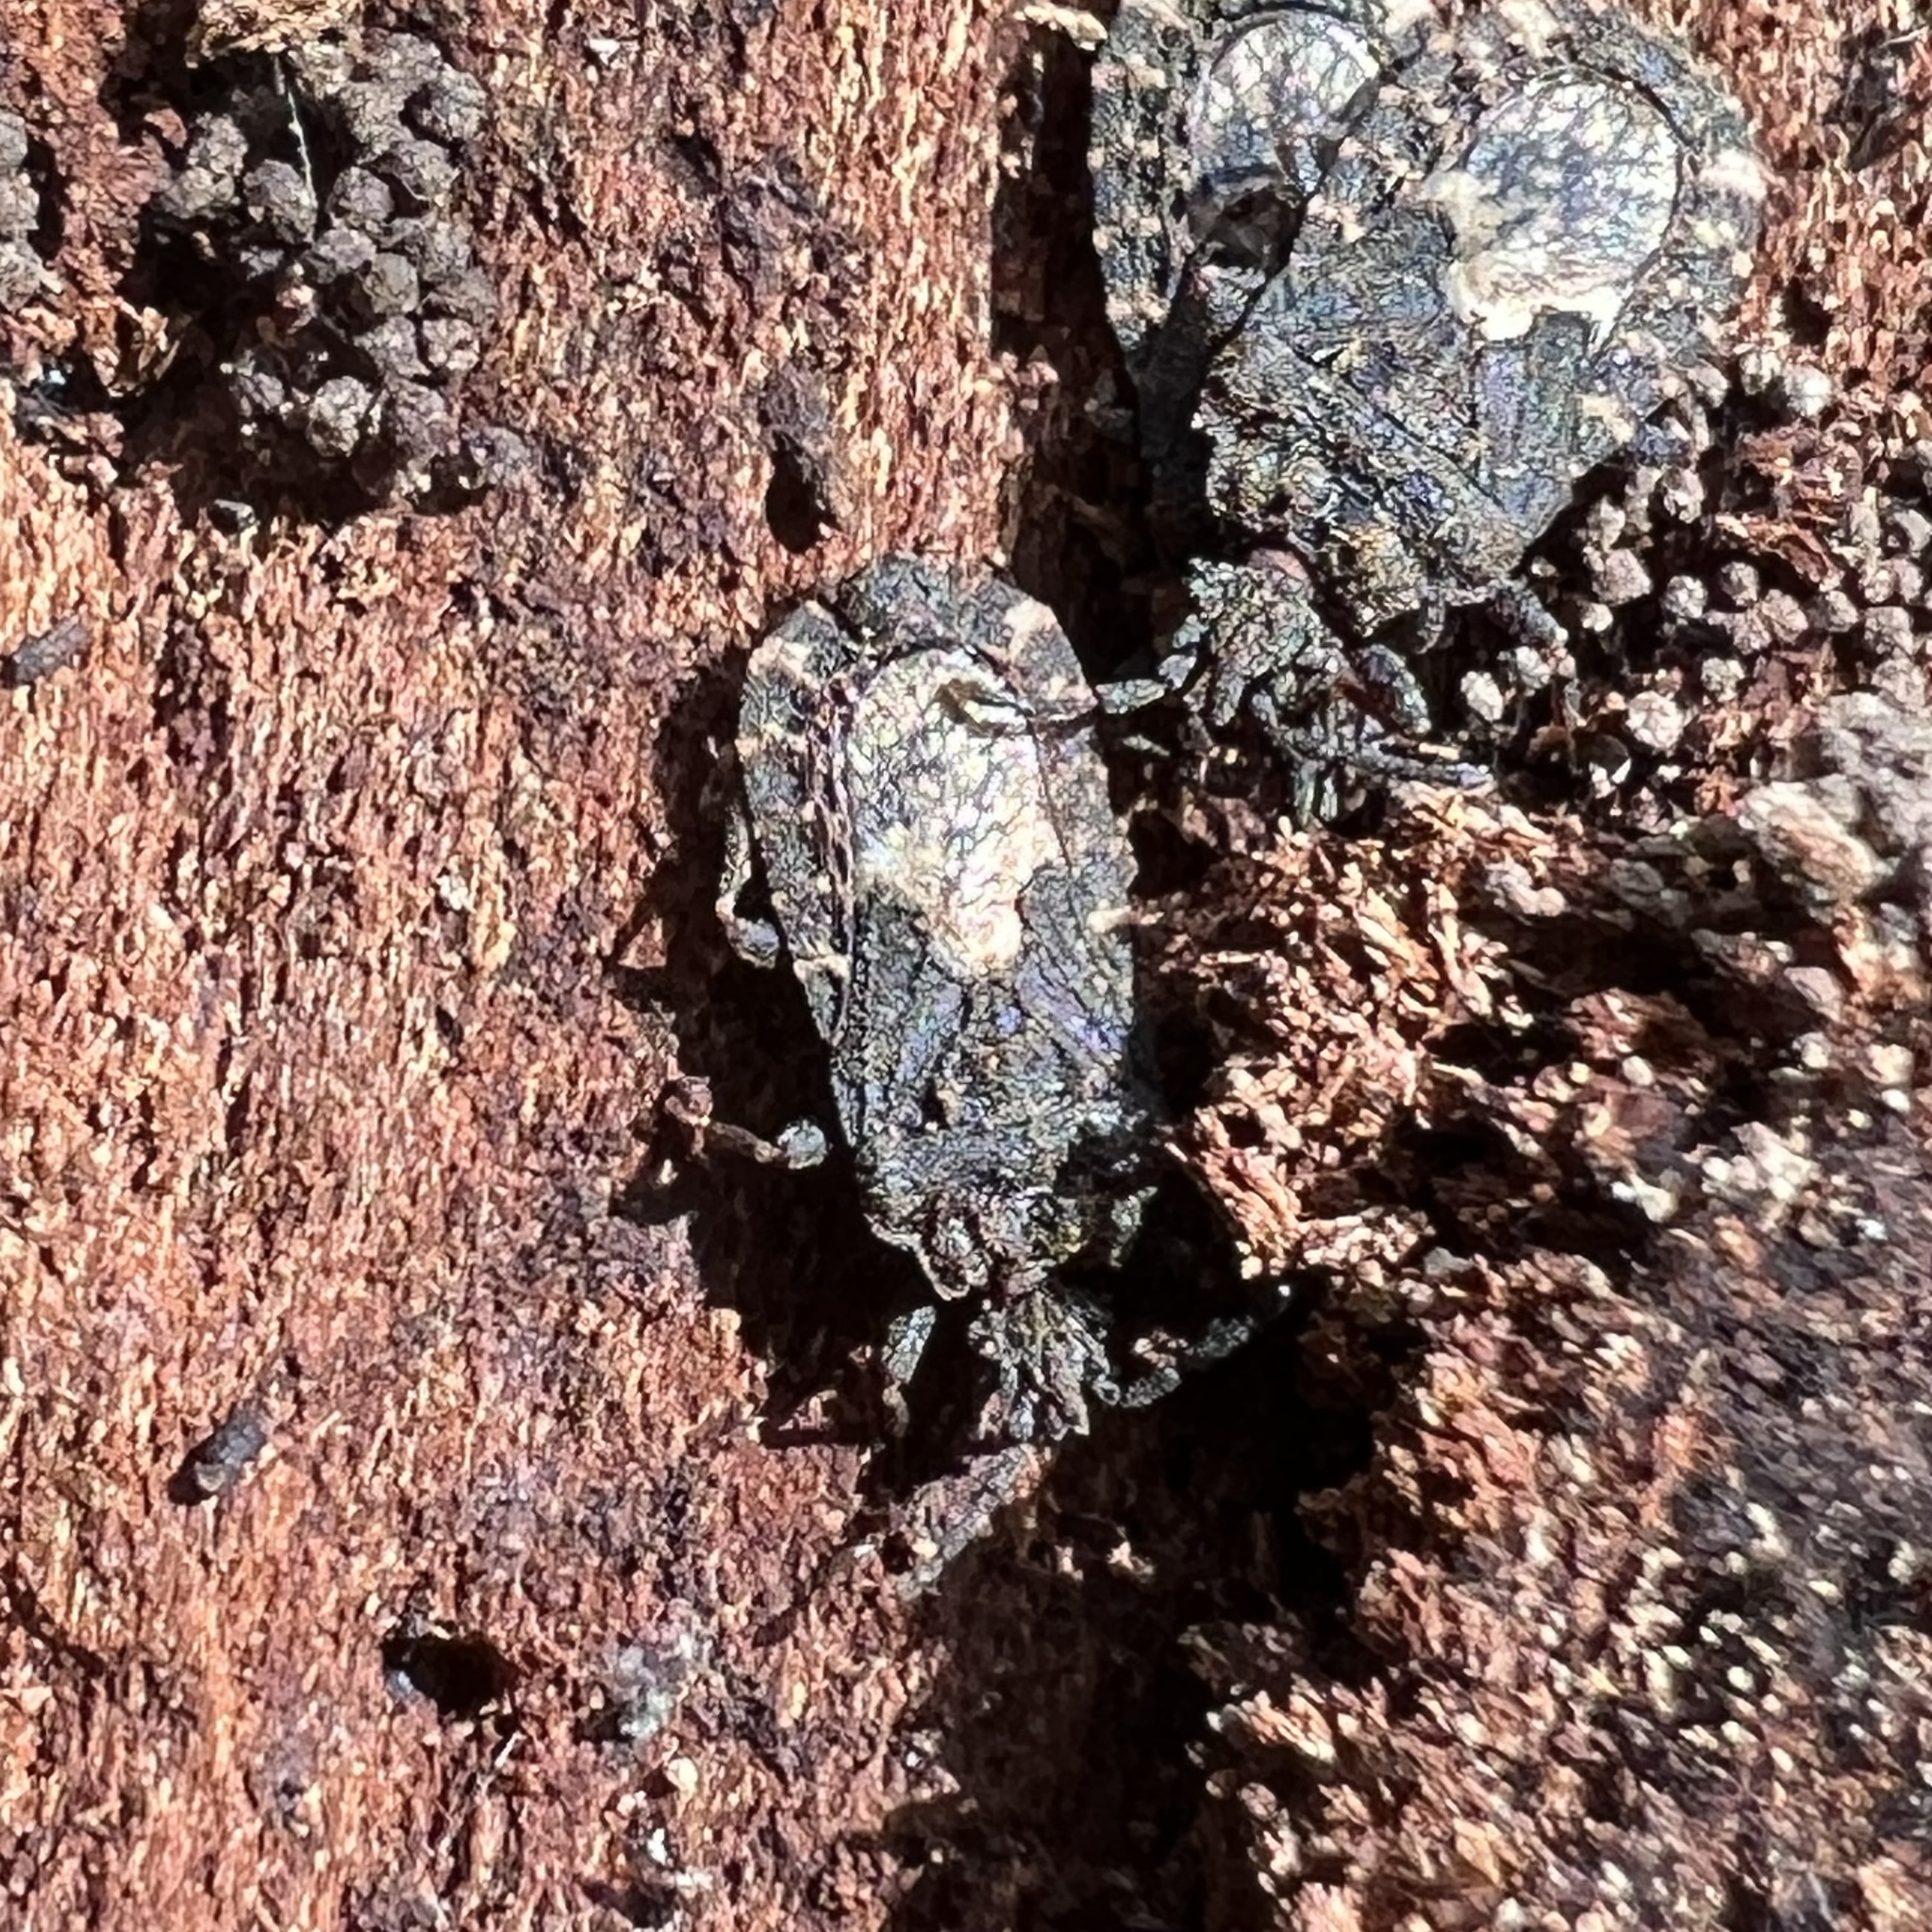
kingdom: Animalia
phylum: Arthropoda
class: Insecta
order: Hemiptera
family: Aradidae
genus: Mezira
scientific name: Mezira
